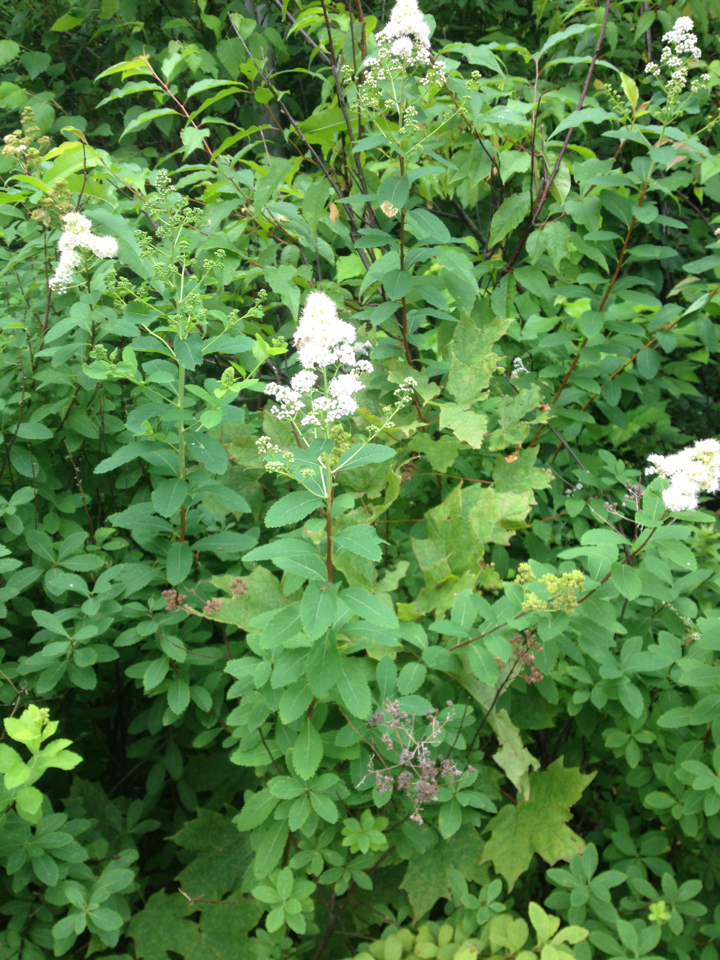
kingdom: Plantae
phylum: Tracheophyta
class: Magnoliopsida
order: Rosales
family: Rosaceae
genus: Spiraea
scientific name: Spiraea alba
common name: Pale bridewort
